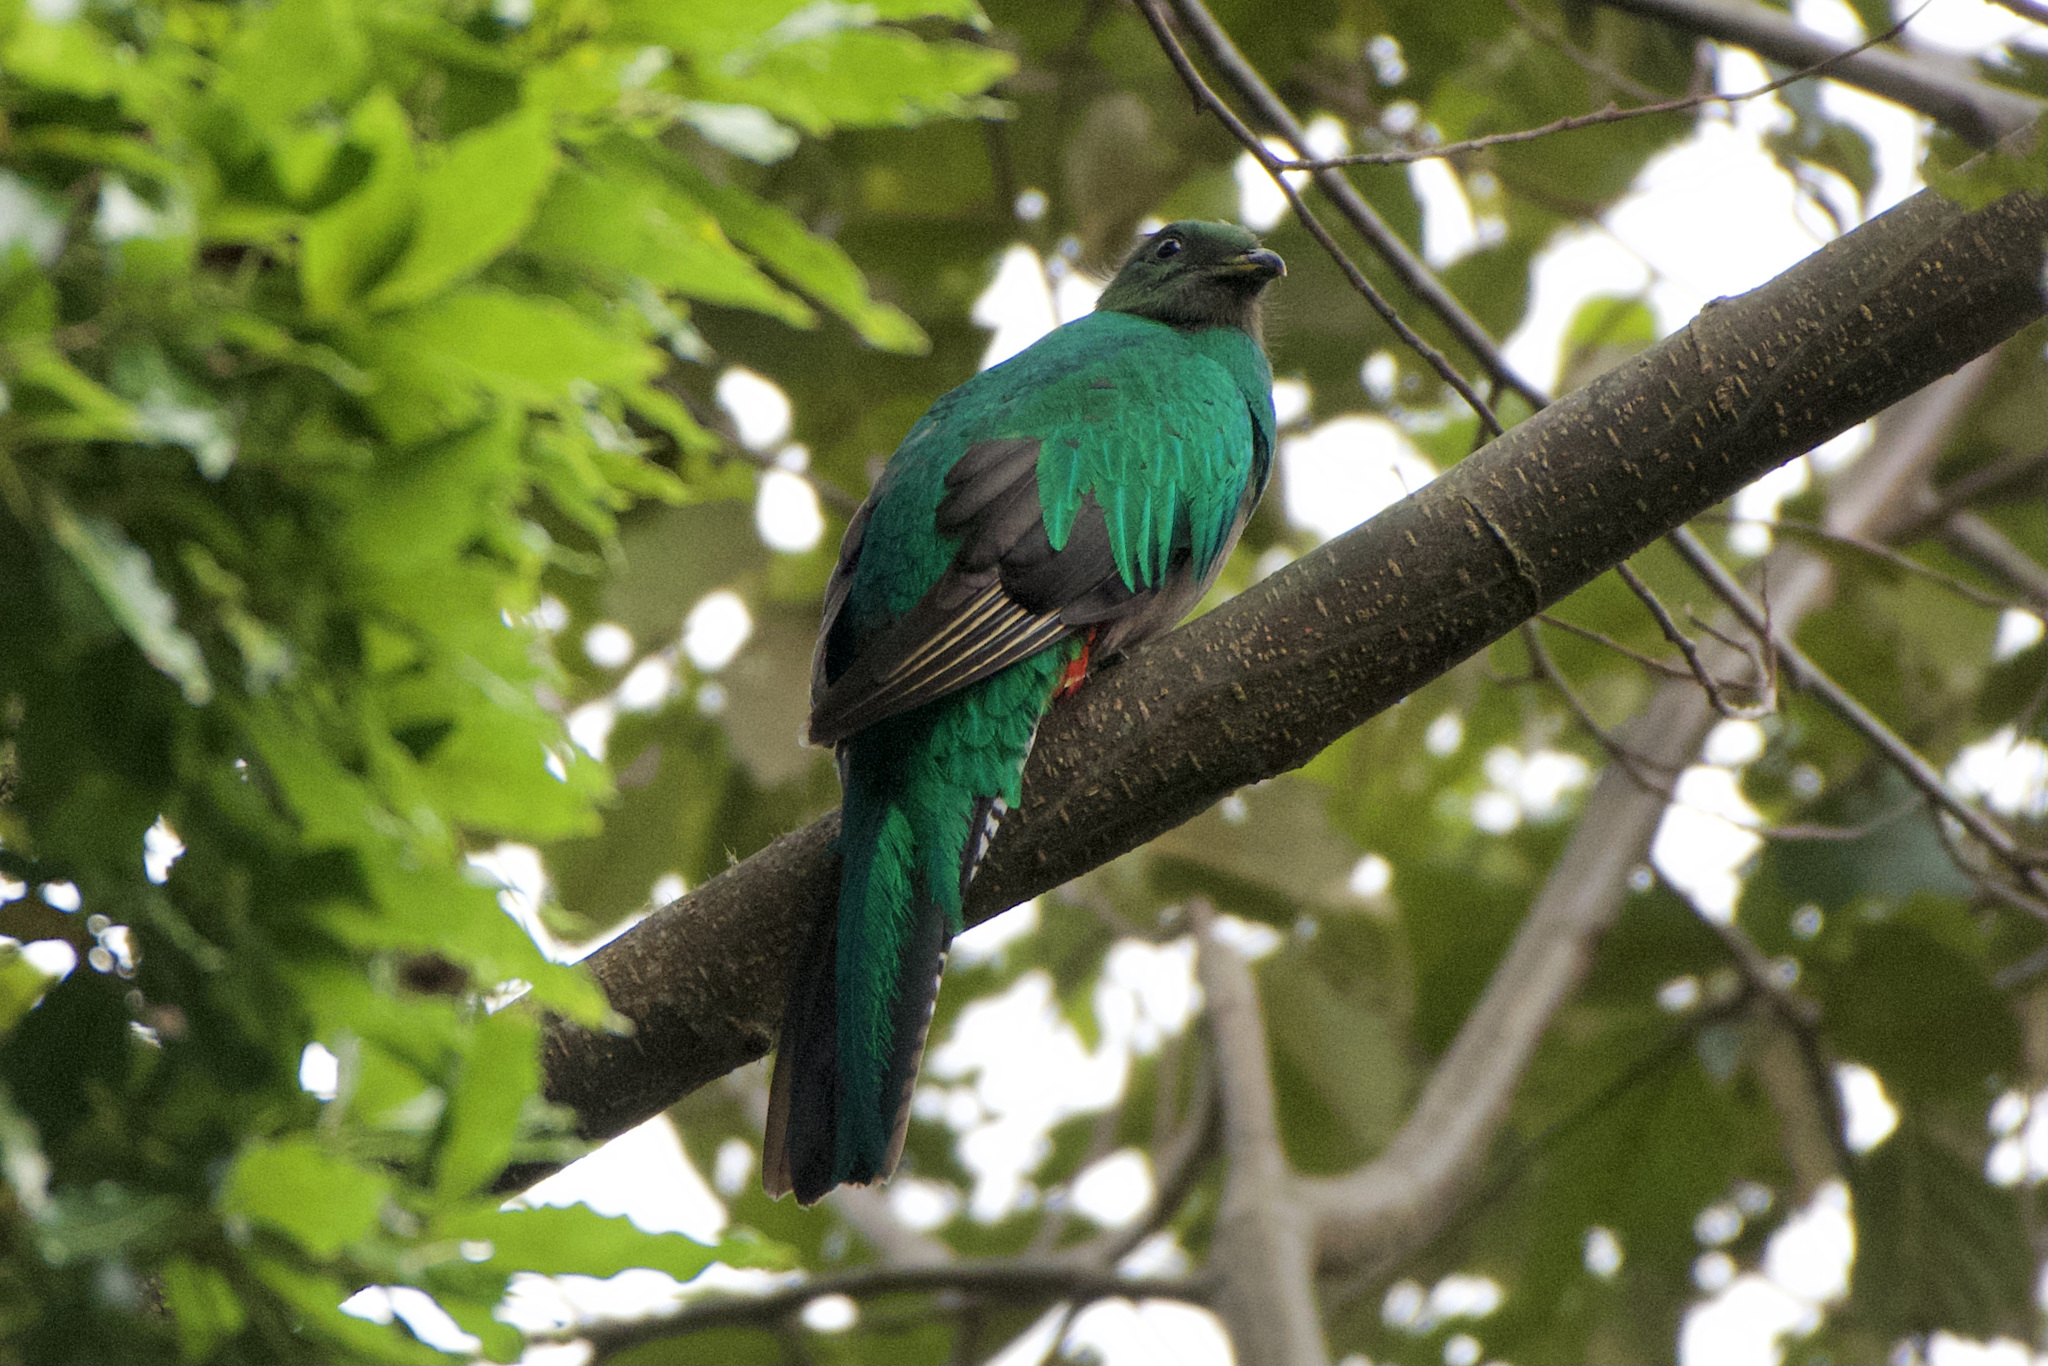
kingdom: Animalia
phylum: Chordata
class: Aves
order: Trogoniformes
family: Trogonidae
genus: Pharomachrus
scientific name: Pharomachrus mocinno
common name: Resplendent quetzal
